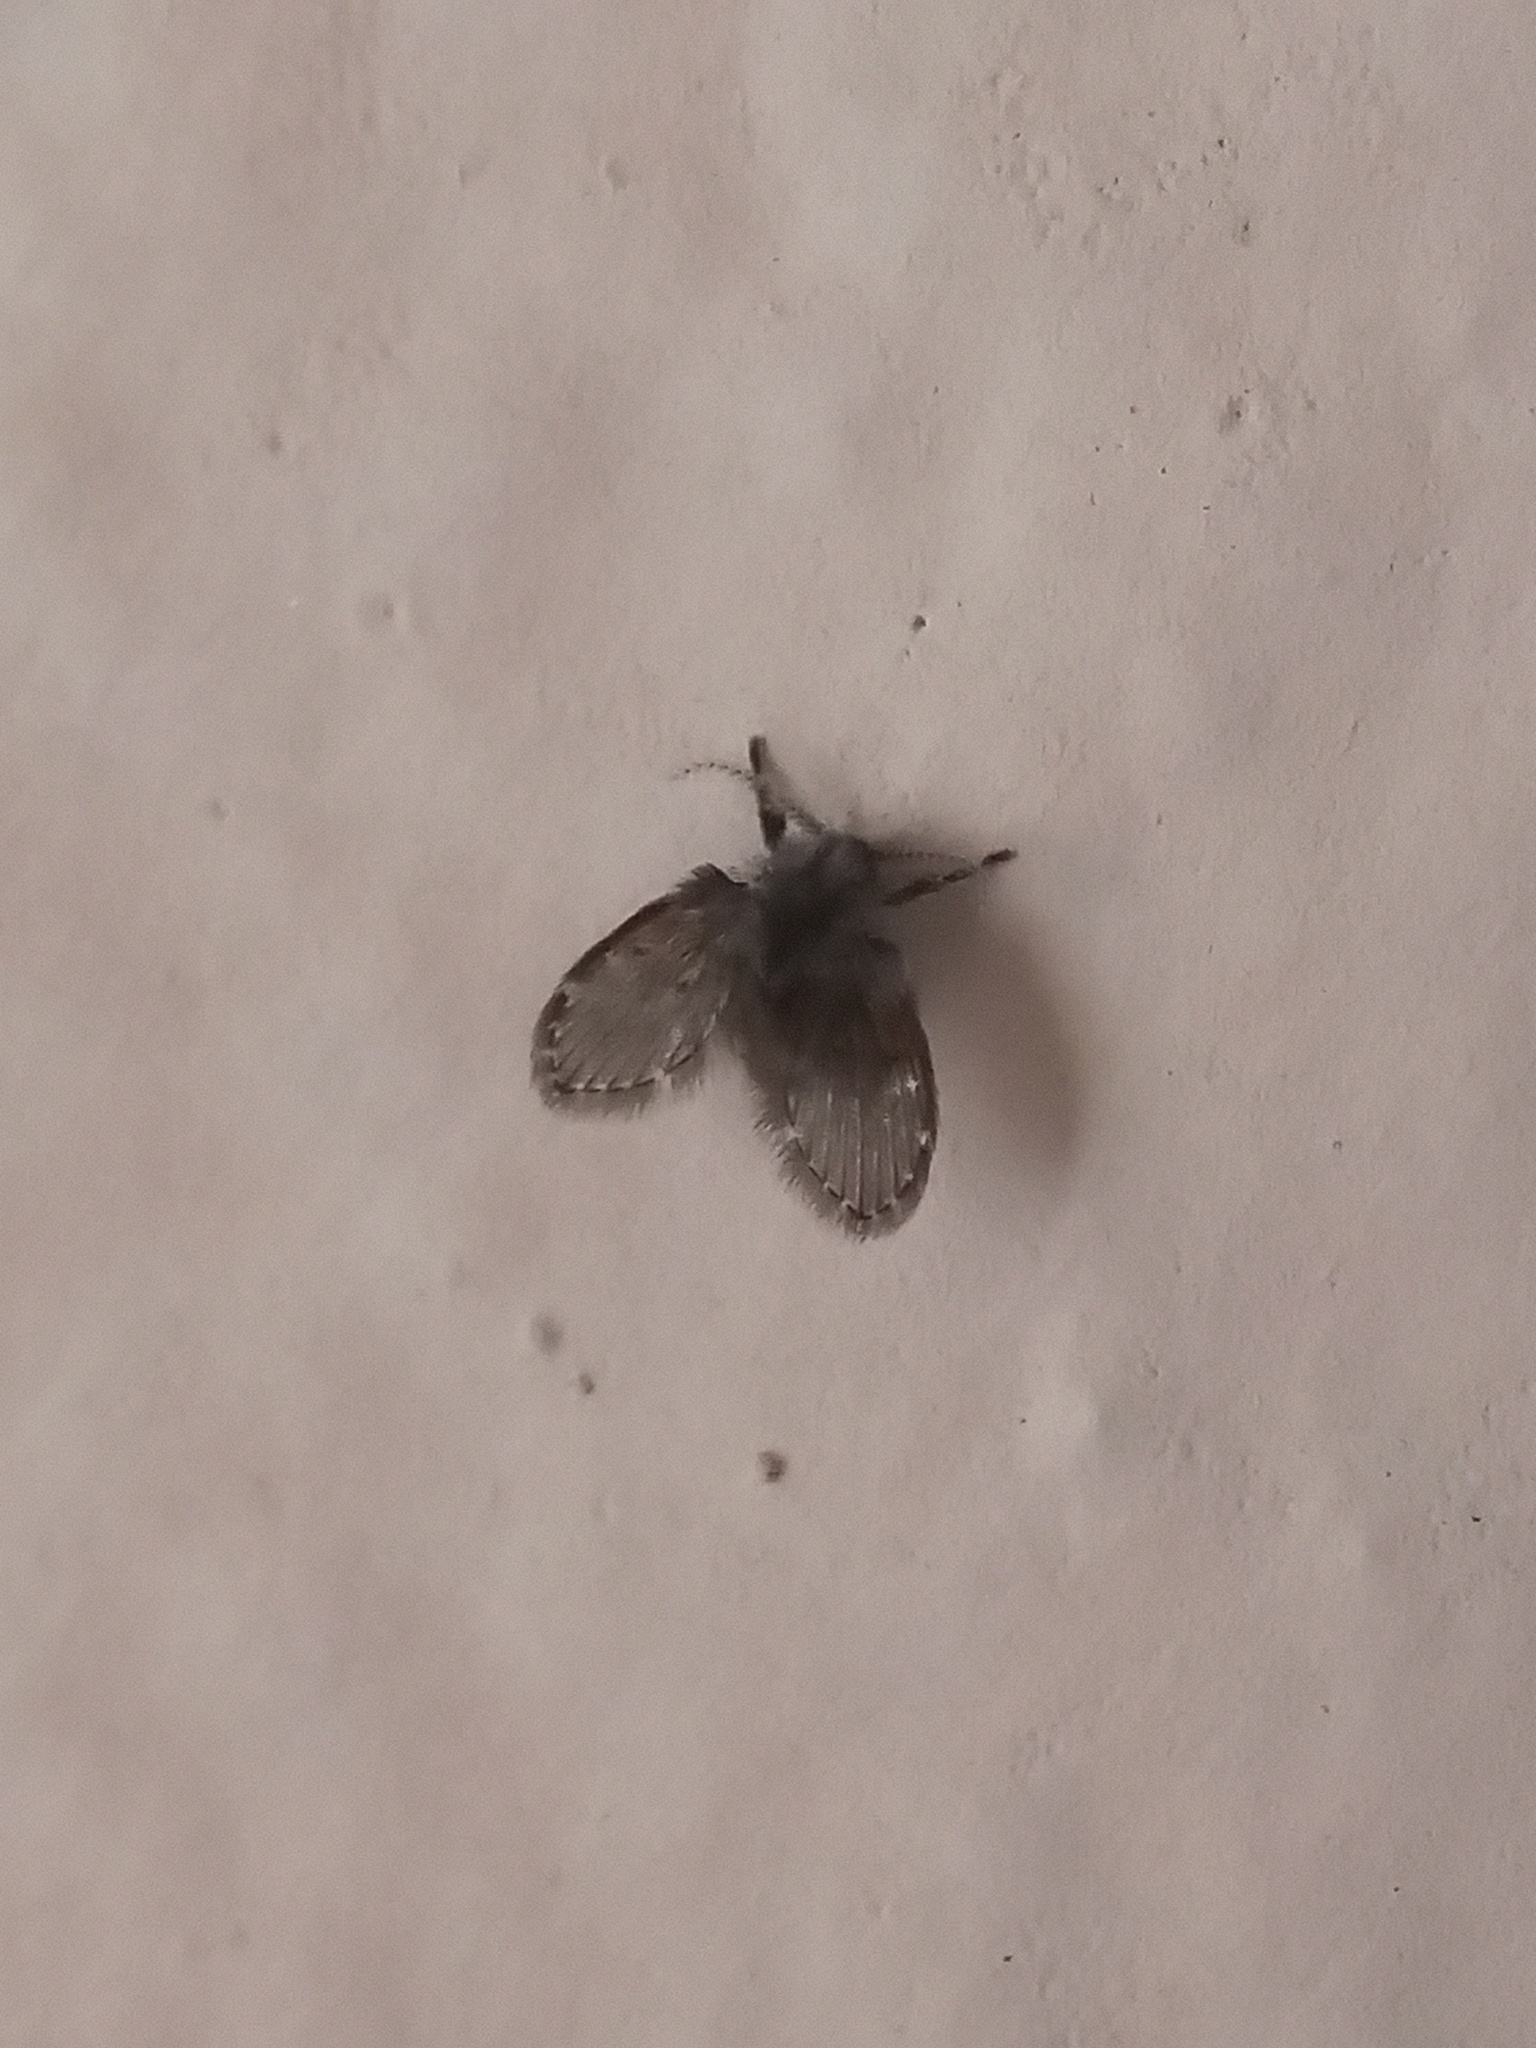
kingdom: Animalia
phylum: Arthropoda
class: Insecta
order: Diptera
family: Psychodidae
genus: Clogmia
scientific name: Clogmia albipunctatus
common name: White-spotted moth fly
